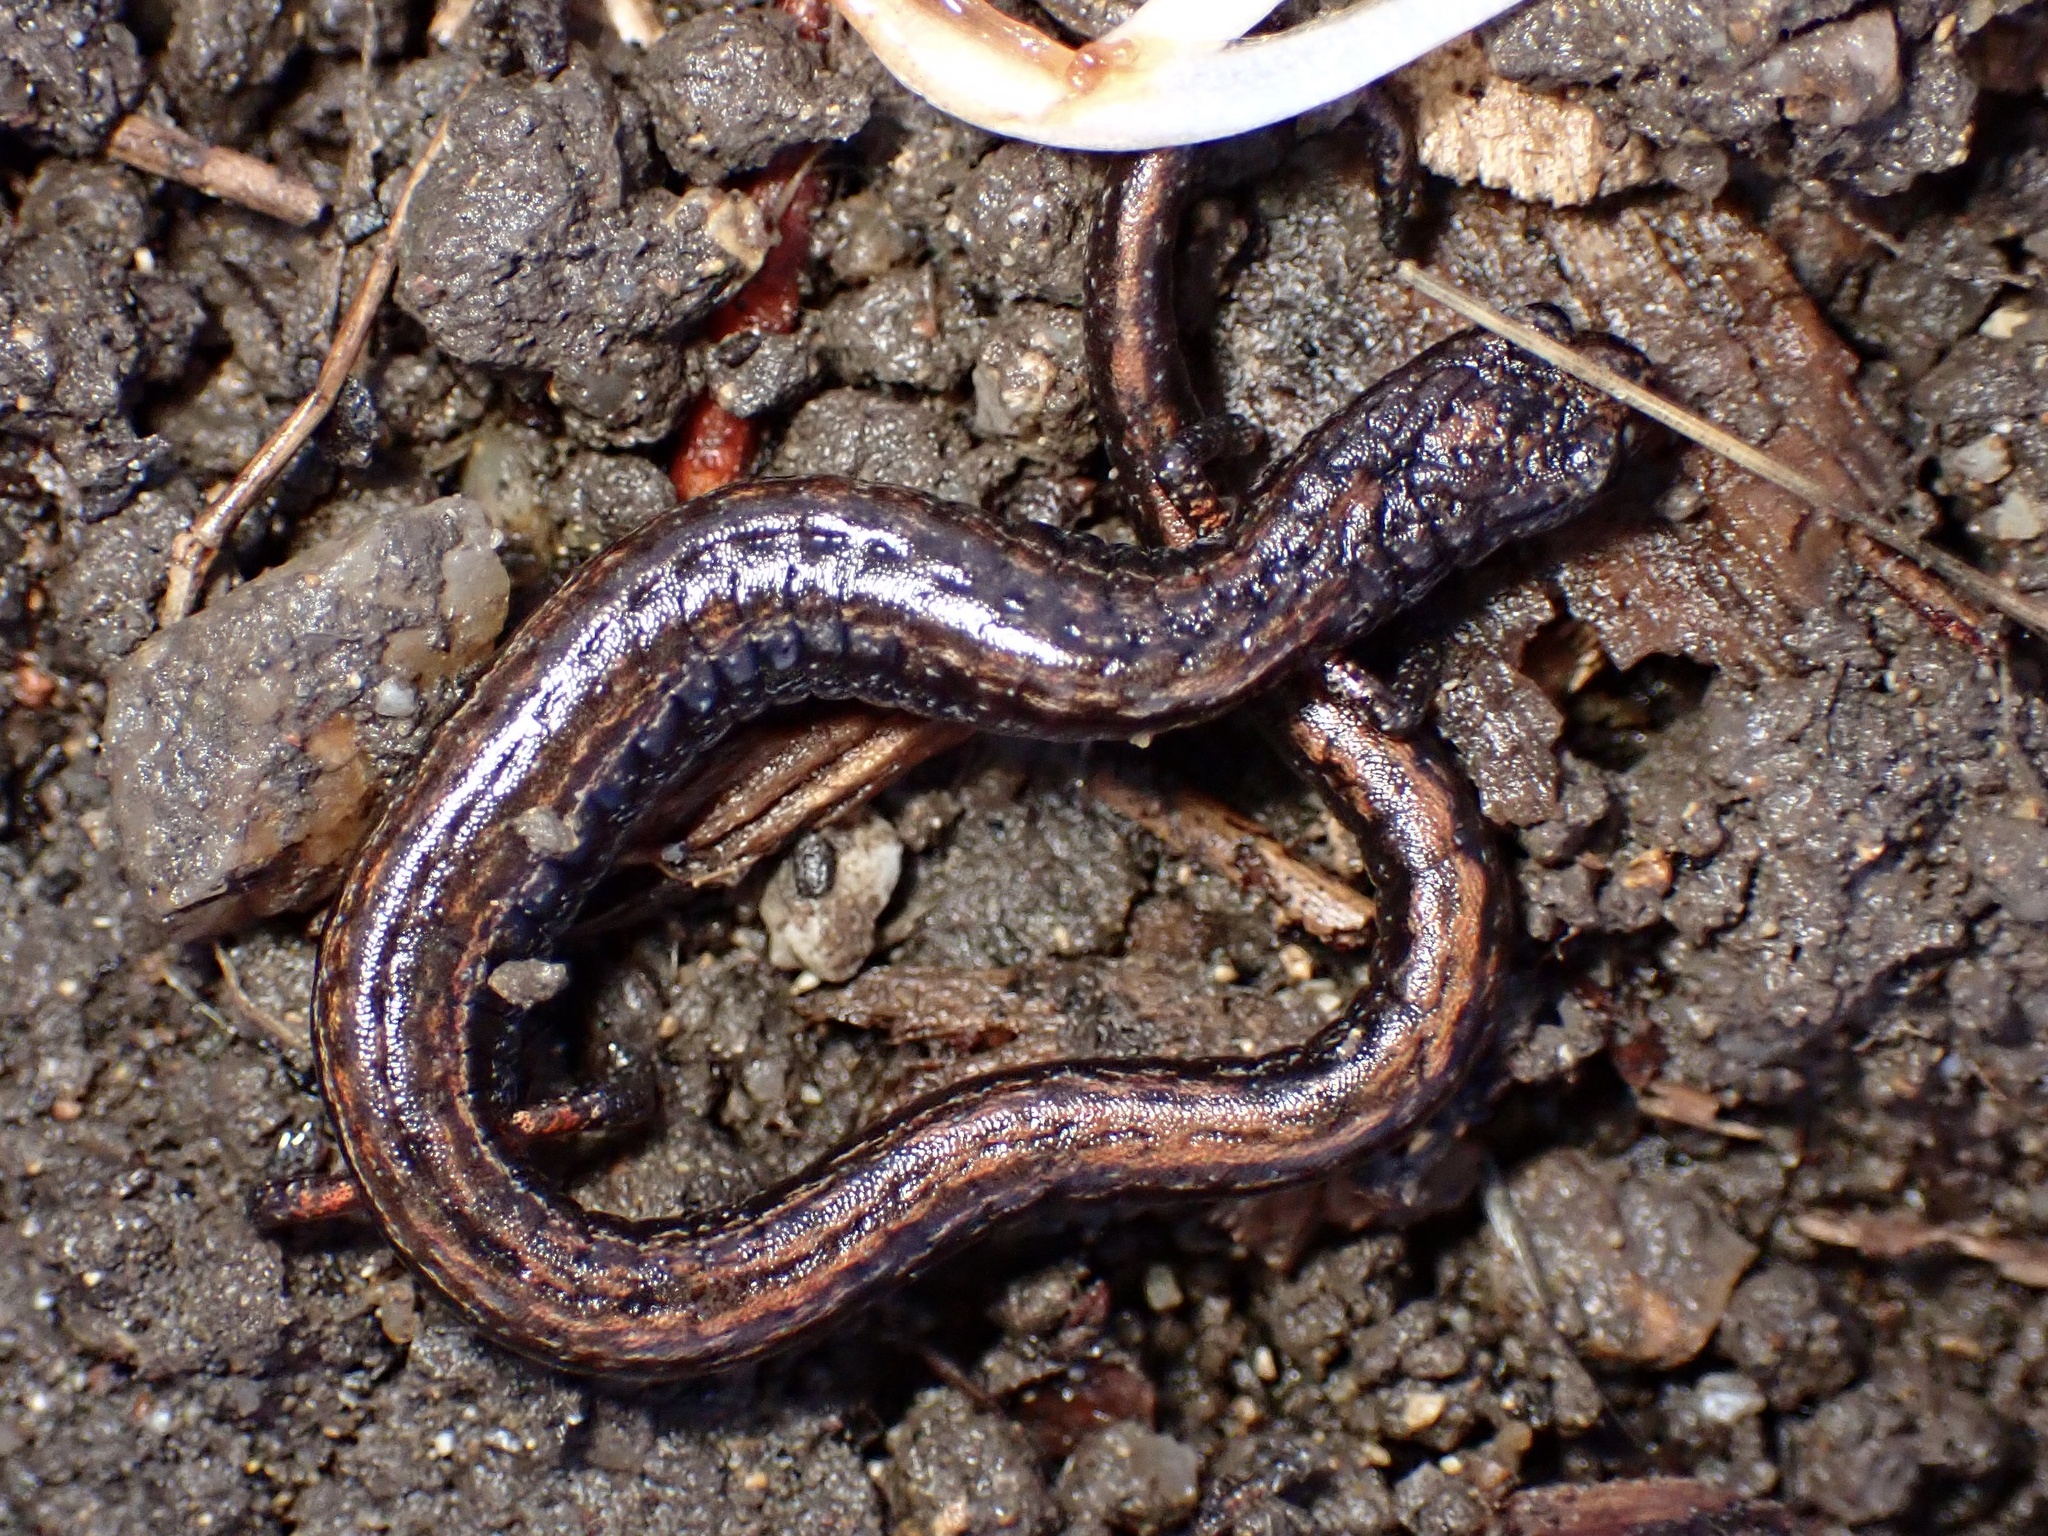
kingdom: Animalia
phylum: Chordata
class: Amphibia
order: Caudata
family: Plethodontidae
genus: Batrachoseps
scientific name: Batrachoseps attenuatus
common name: California slender salamander
